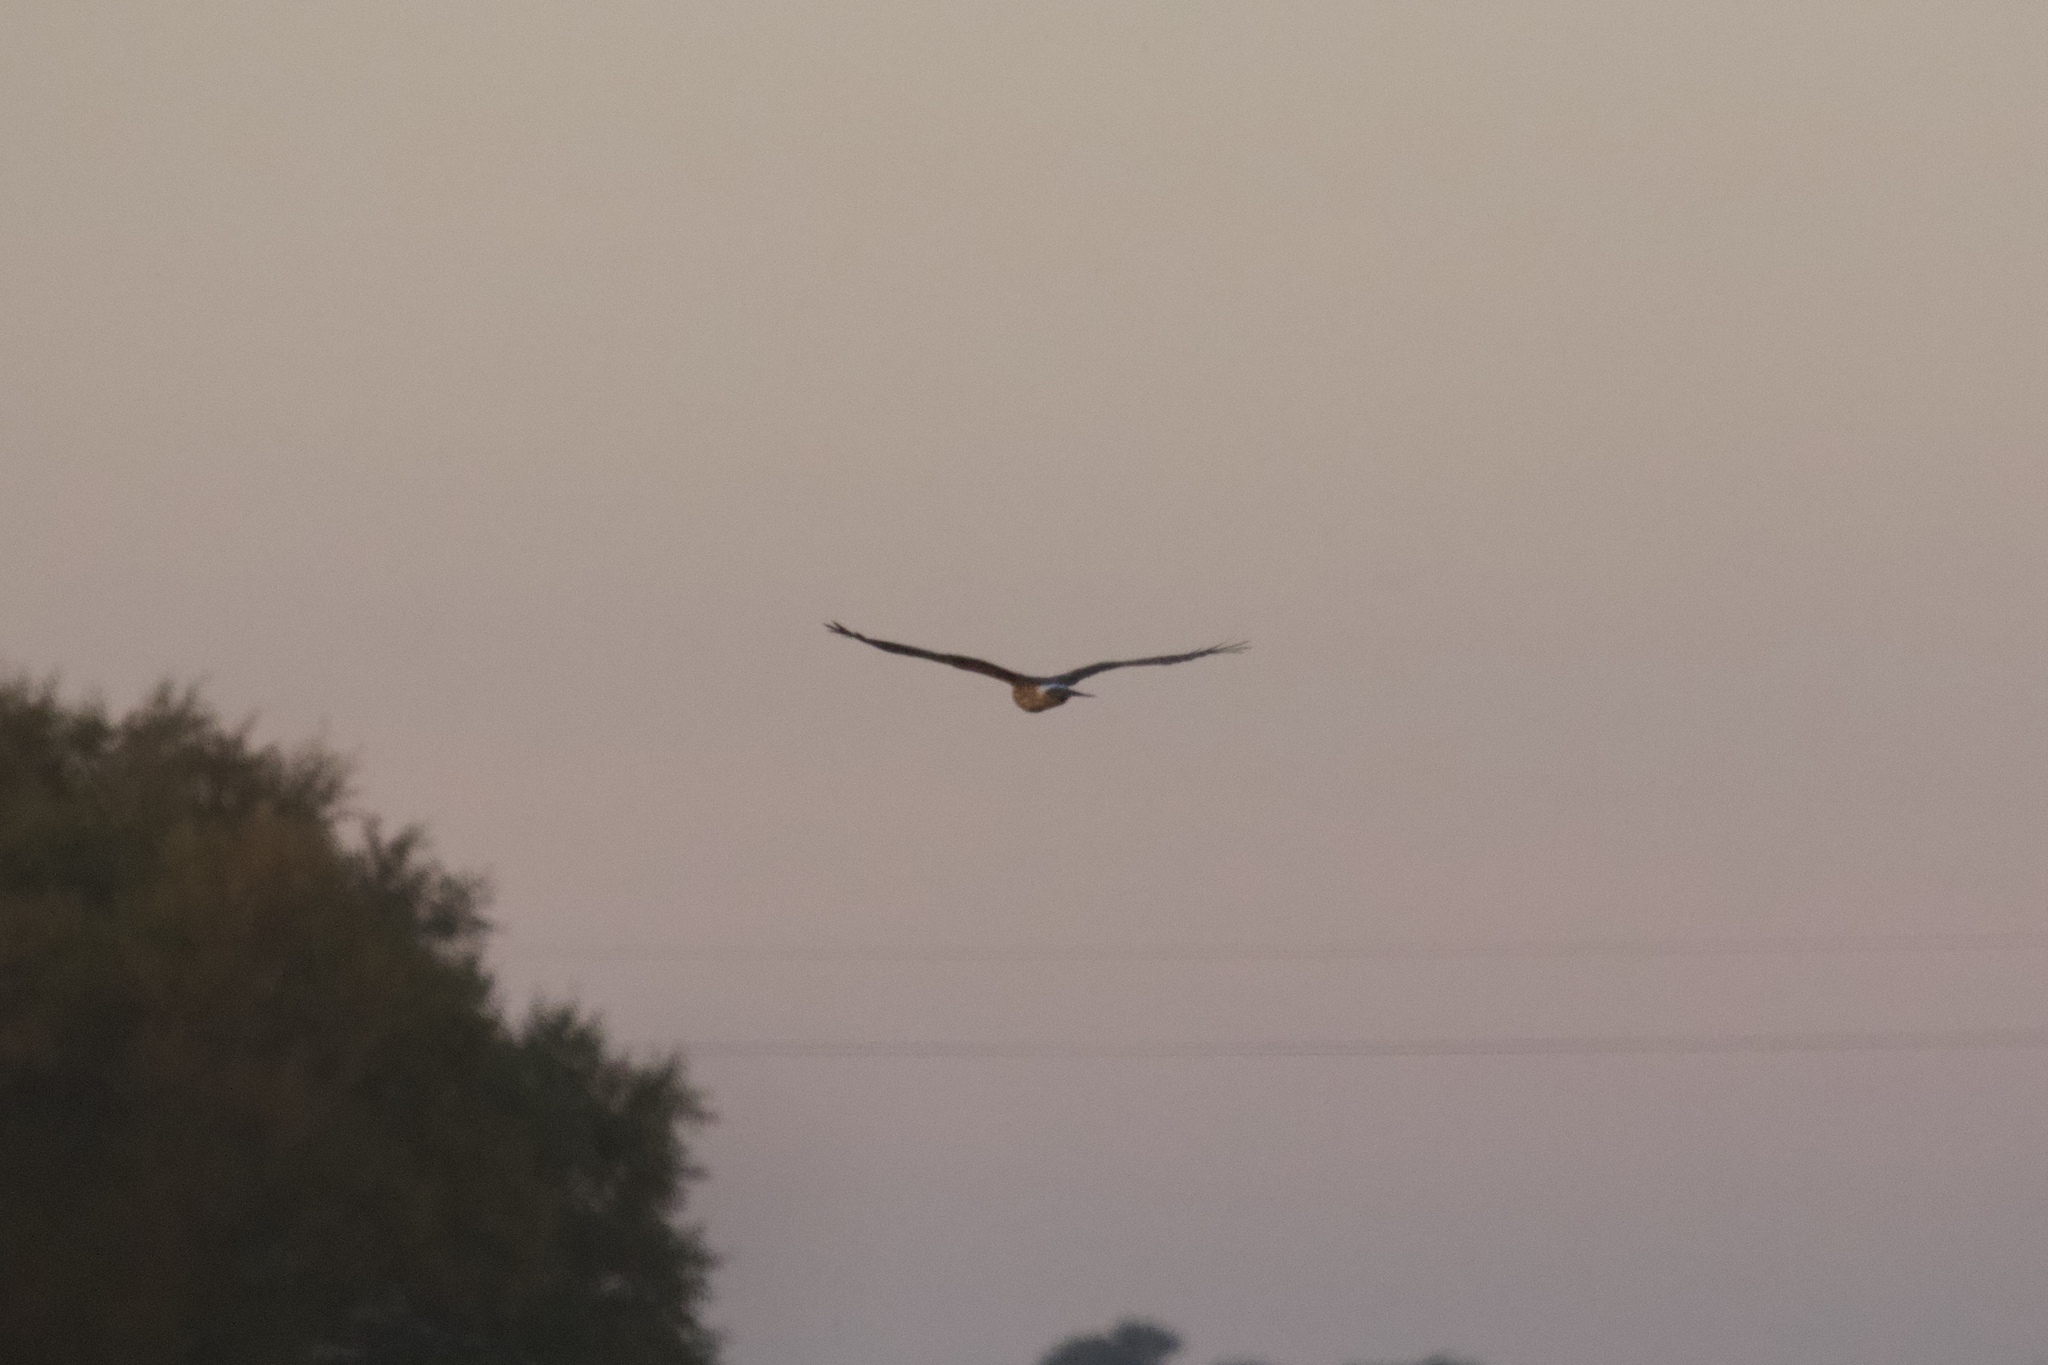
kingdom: Animalia
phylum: Chordata
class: Aves
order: Accipitriformes
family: Accipitridae
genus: Circus
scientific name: Circus cyaneus
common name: Hen harrier
